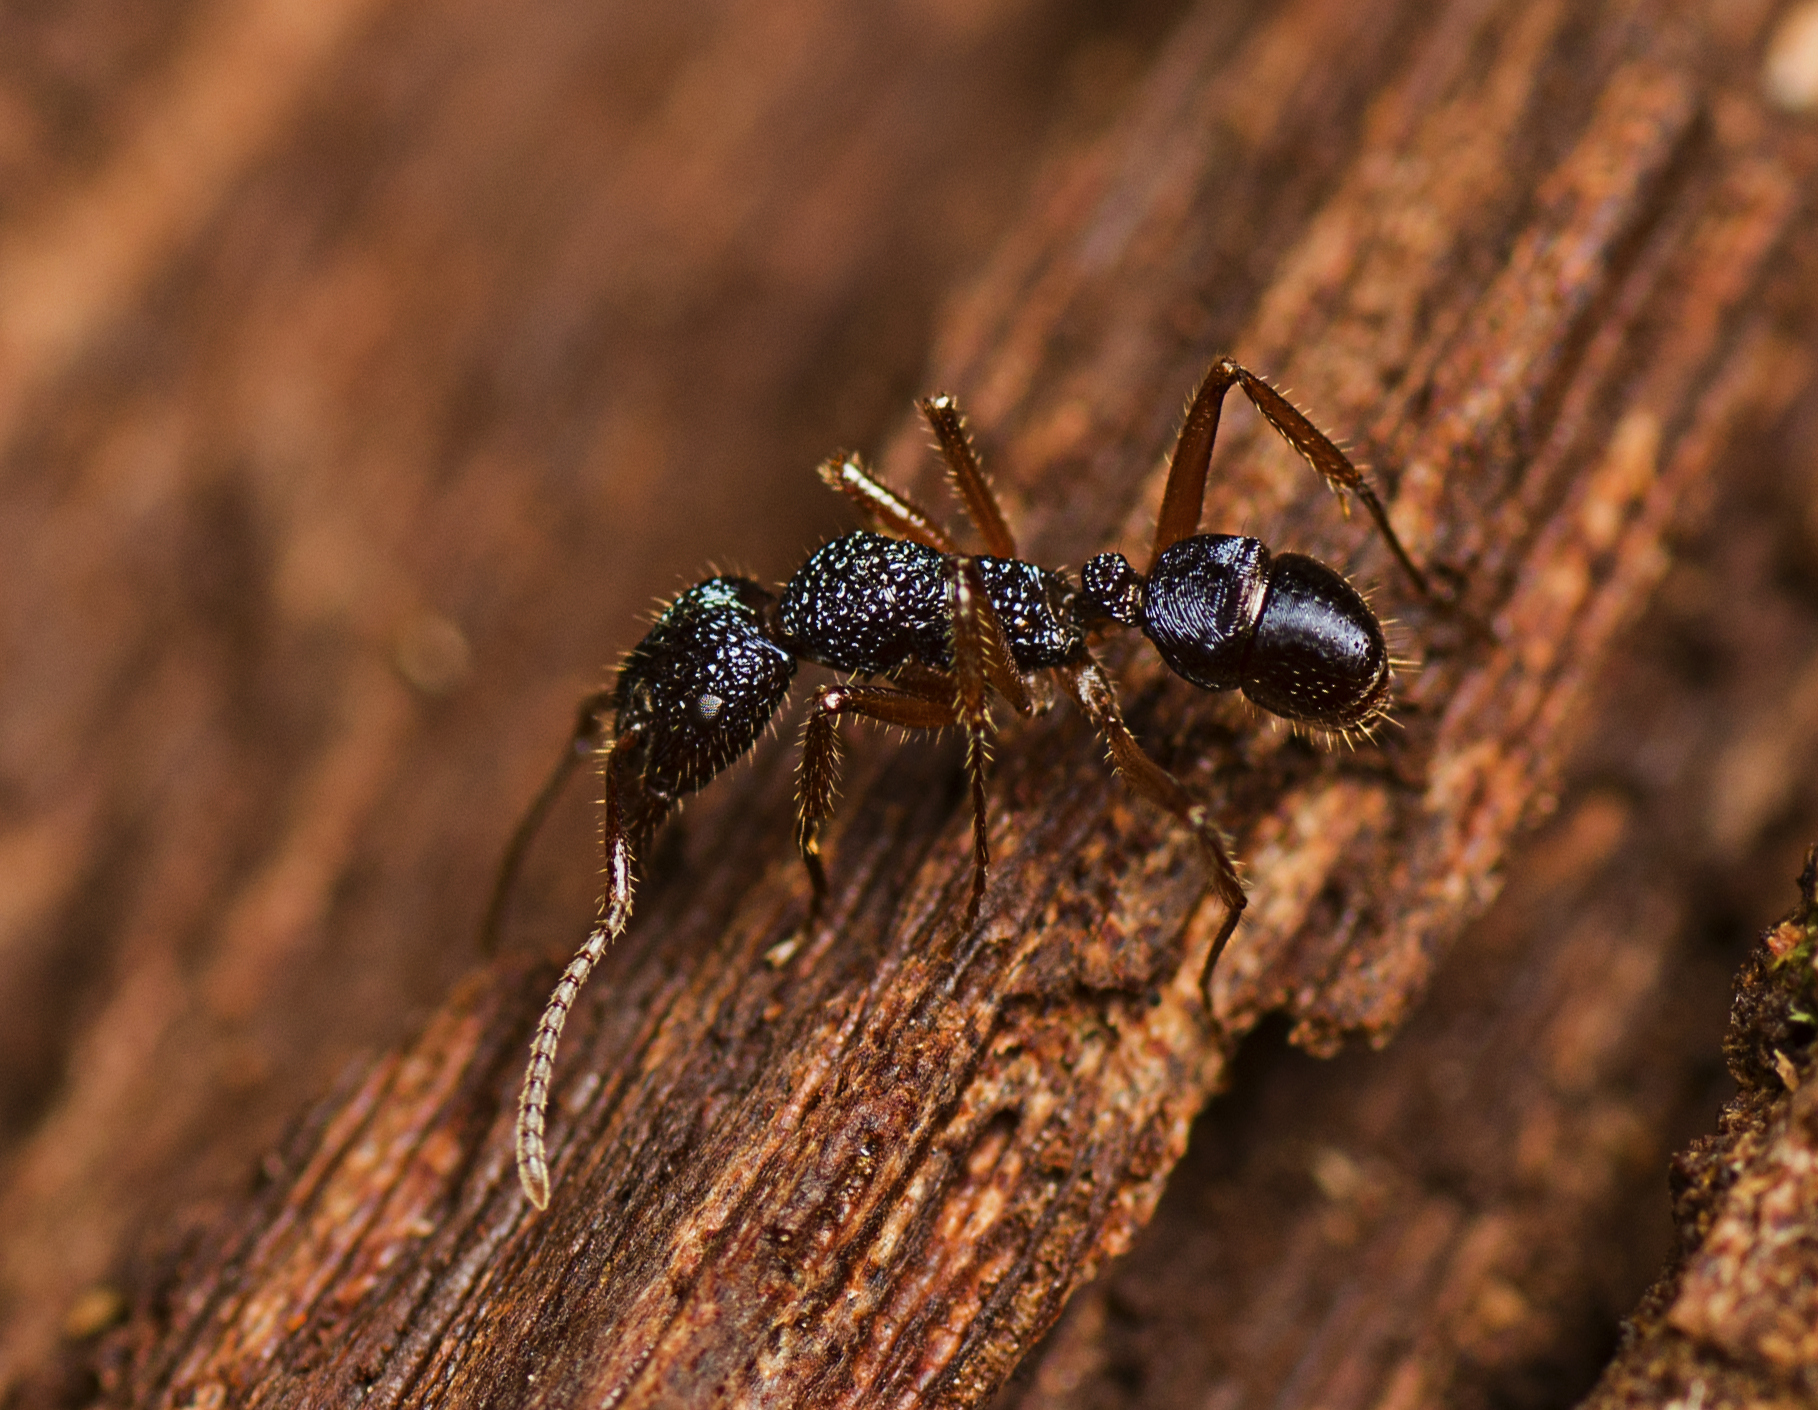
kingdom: Animalia
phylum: Arthropoda
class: Insecta
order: Hymenoptera
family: Formicidae
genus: Rhytidoponera
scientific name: Rhytidoponera chalybaea
